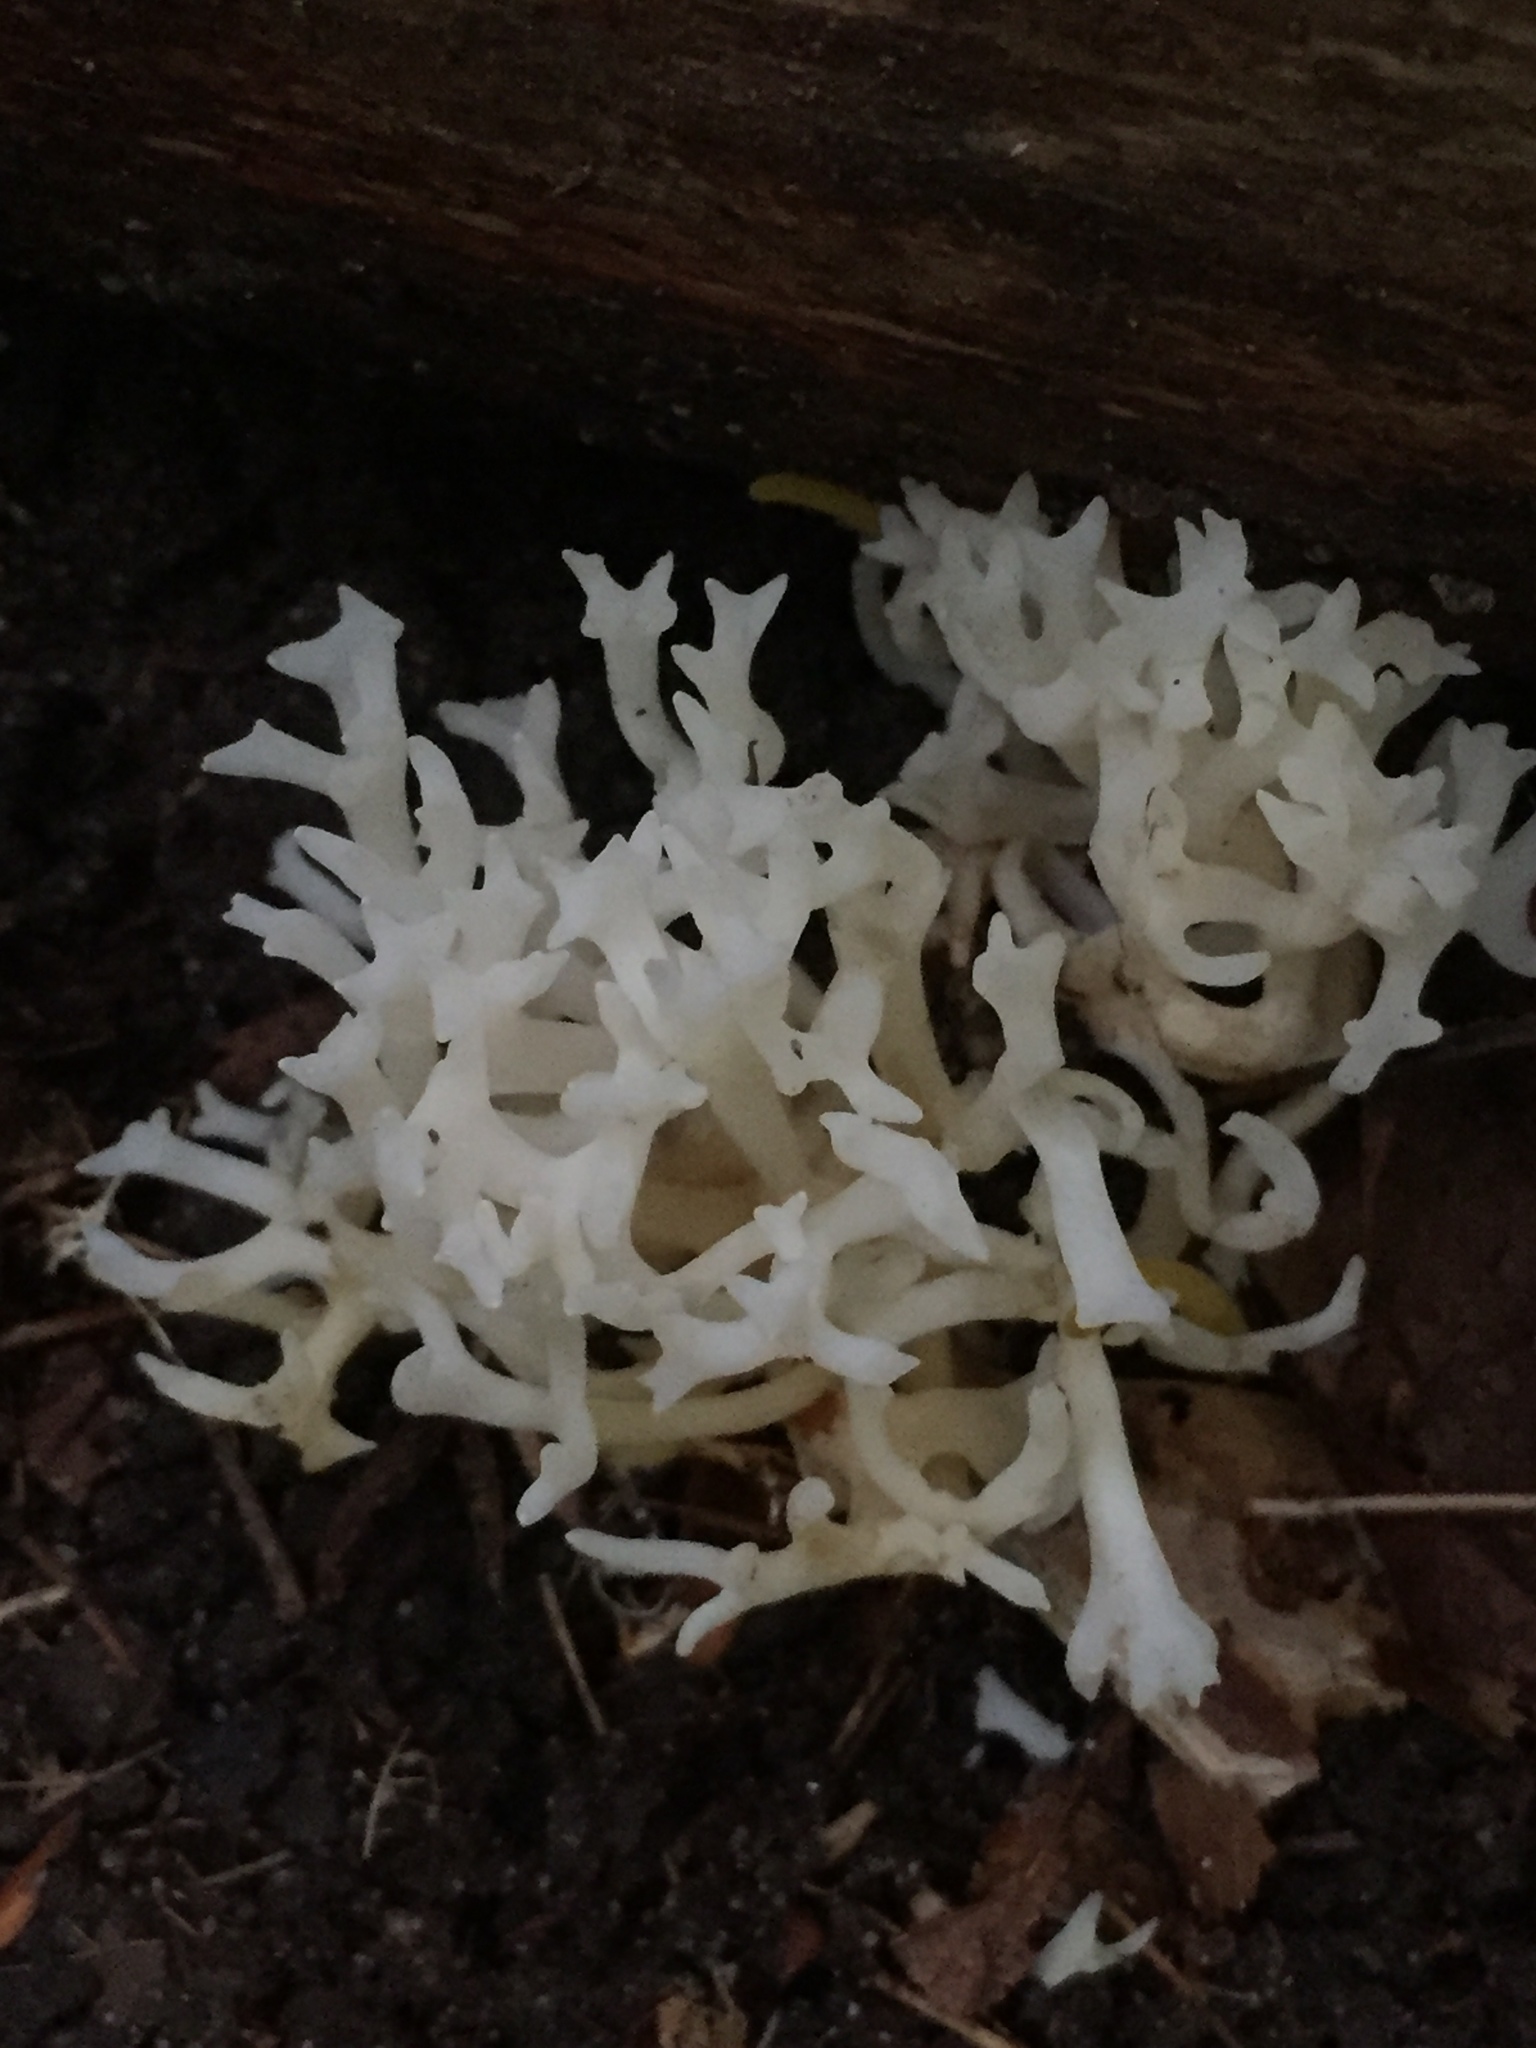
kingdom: Fungi
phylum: Basidiomycota
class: Agaricomycetes
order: Agaricales
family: Clavariaceae
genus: Ramariopsis
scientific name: Ramariopsis kunzei
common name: Ivory coral
